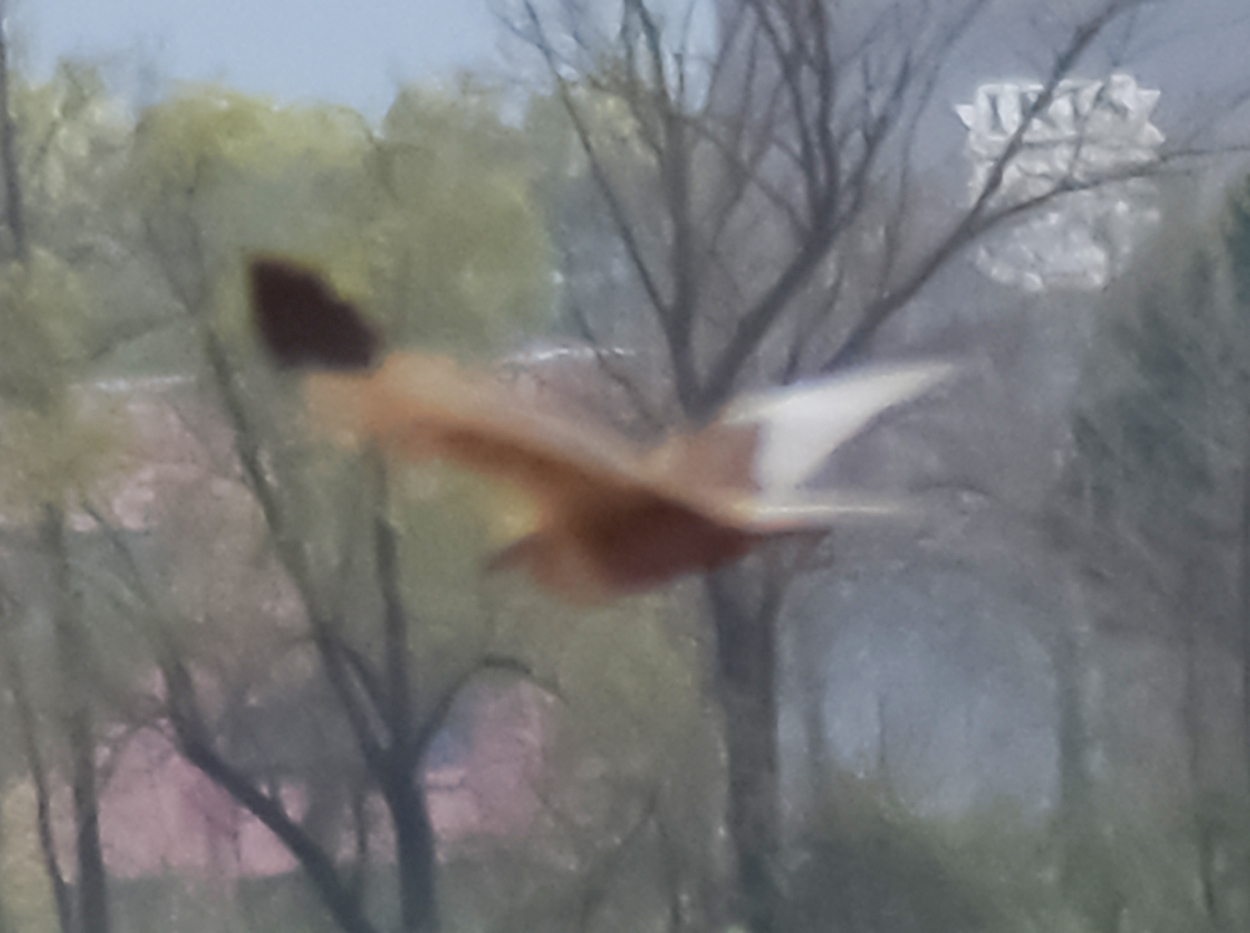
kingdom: Animalia
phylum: Chordata
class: Aves
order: Accipitriformes
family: Accipitridae
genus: Circus
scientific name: Circus aeruginosus
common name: Western marsh harrier
